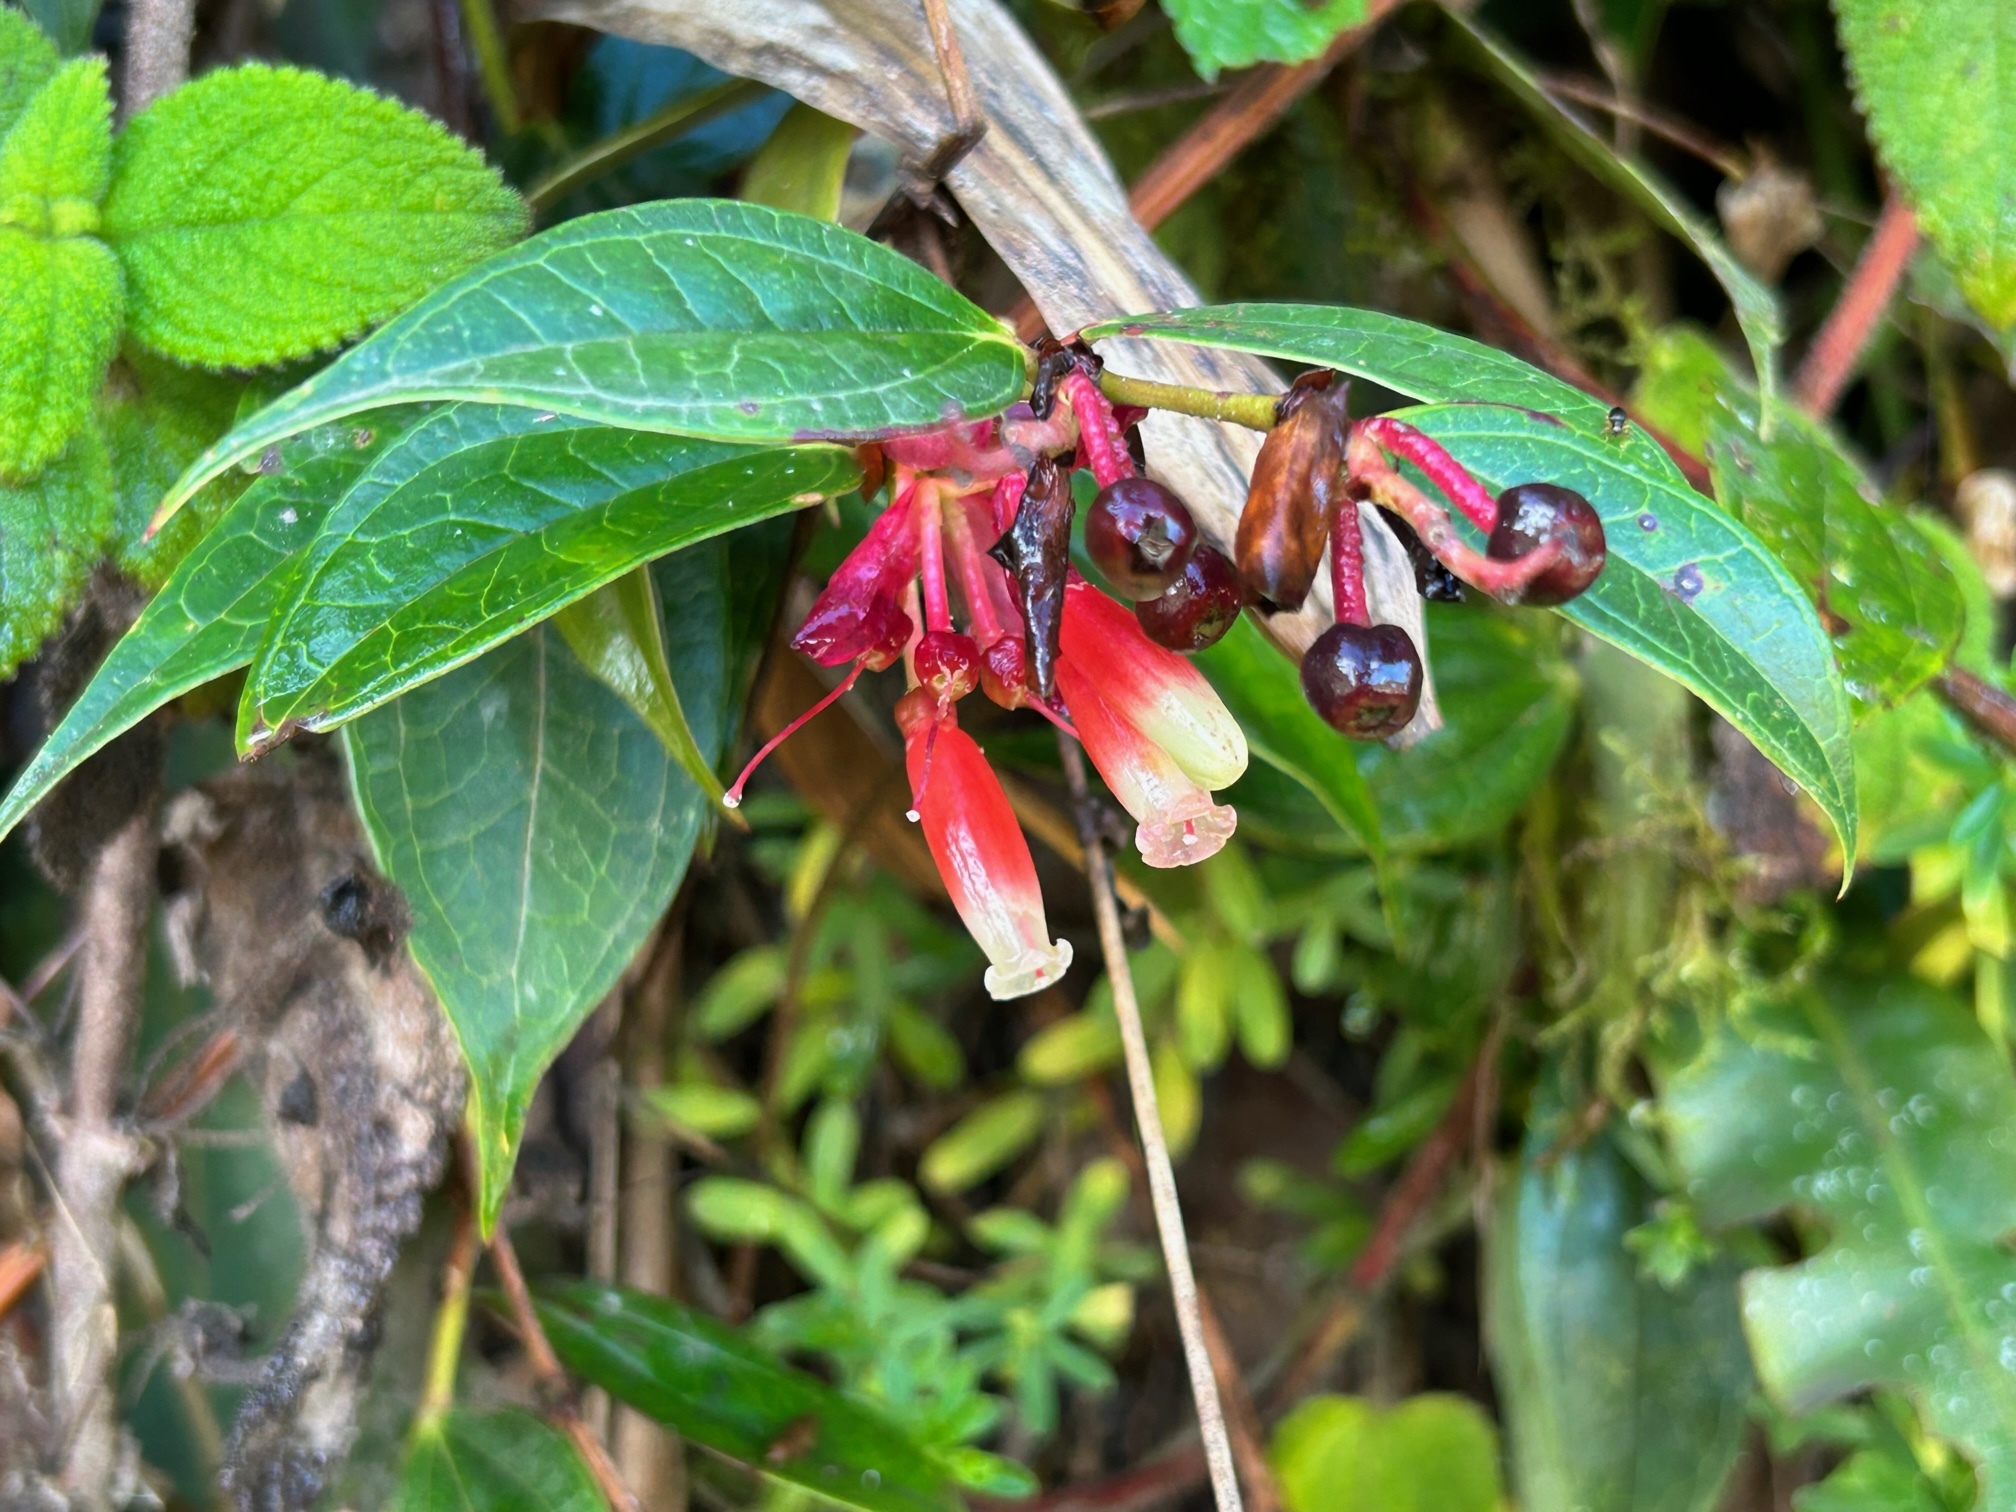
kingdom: Plantae
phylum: Tracheophyta
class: Magnoliopsida
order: Ericales
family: Ericaceae
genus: Cavendishia
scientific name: Cavendishia bracteata
